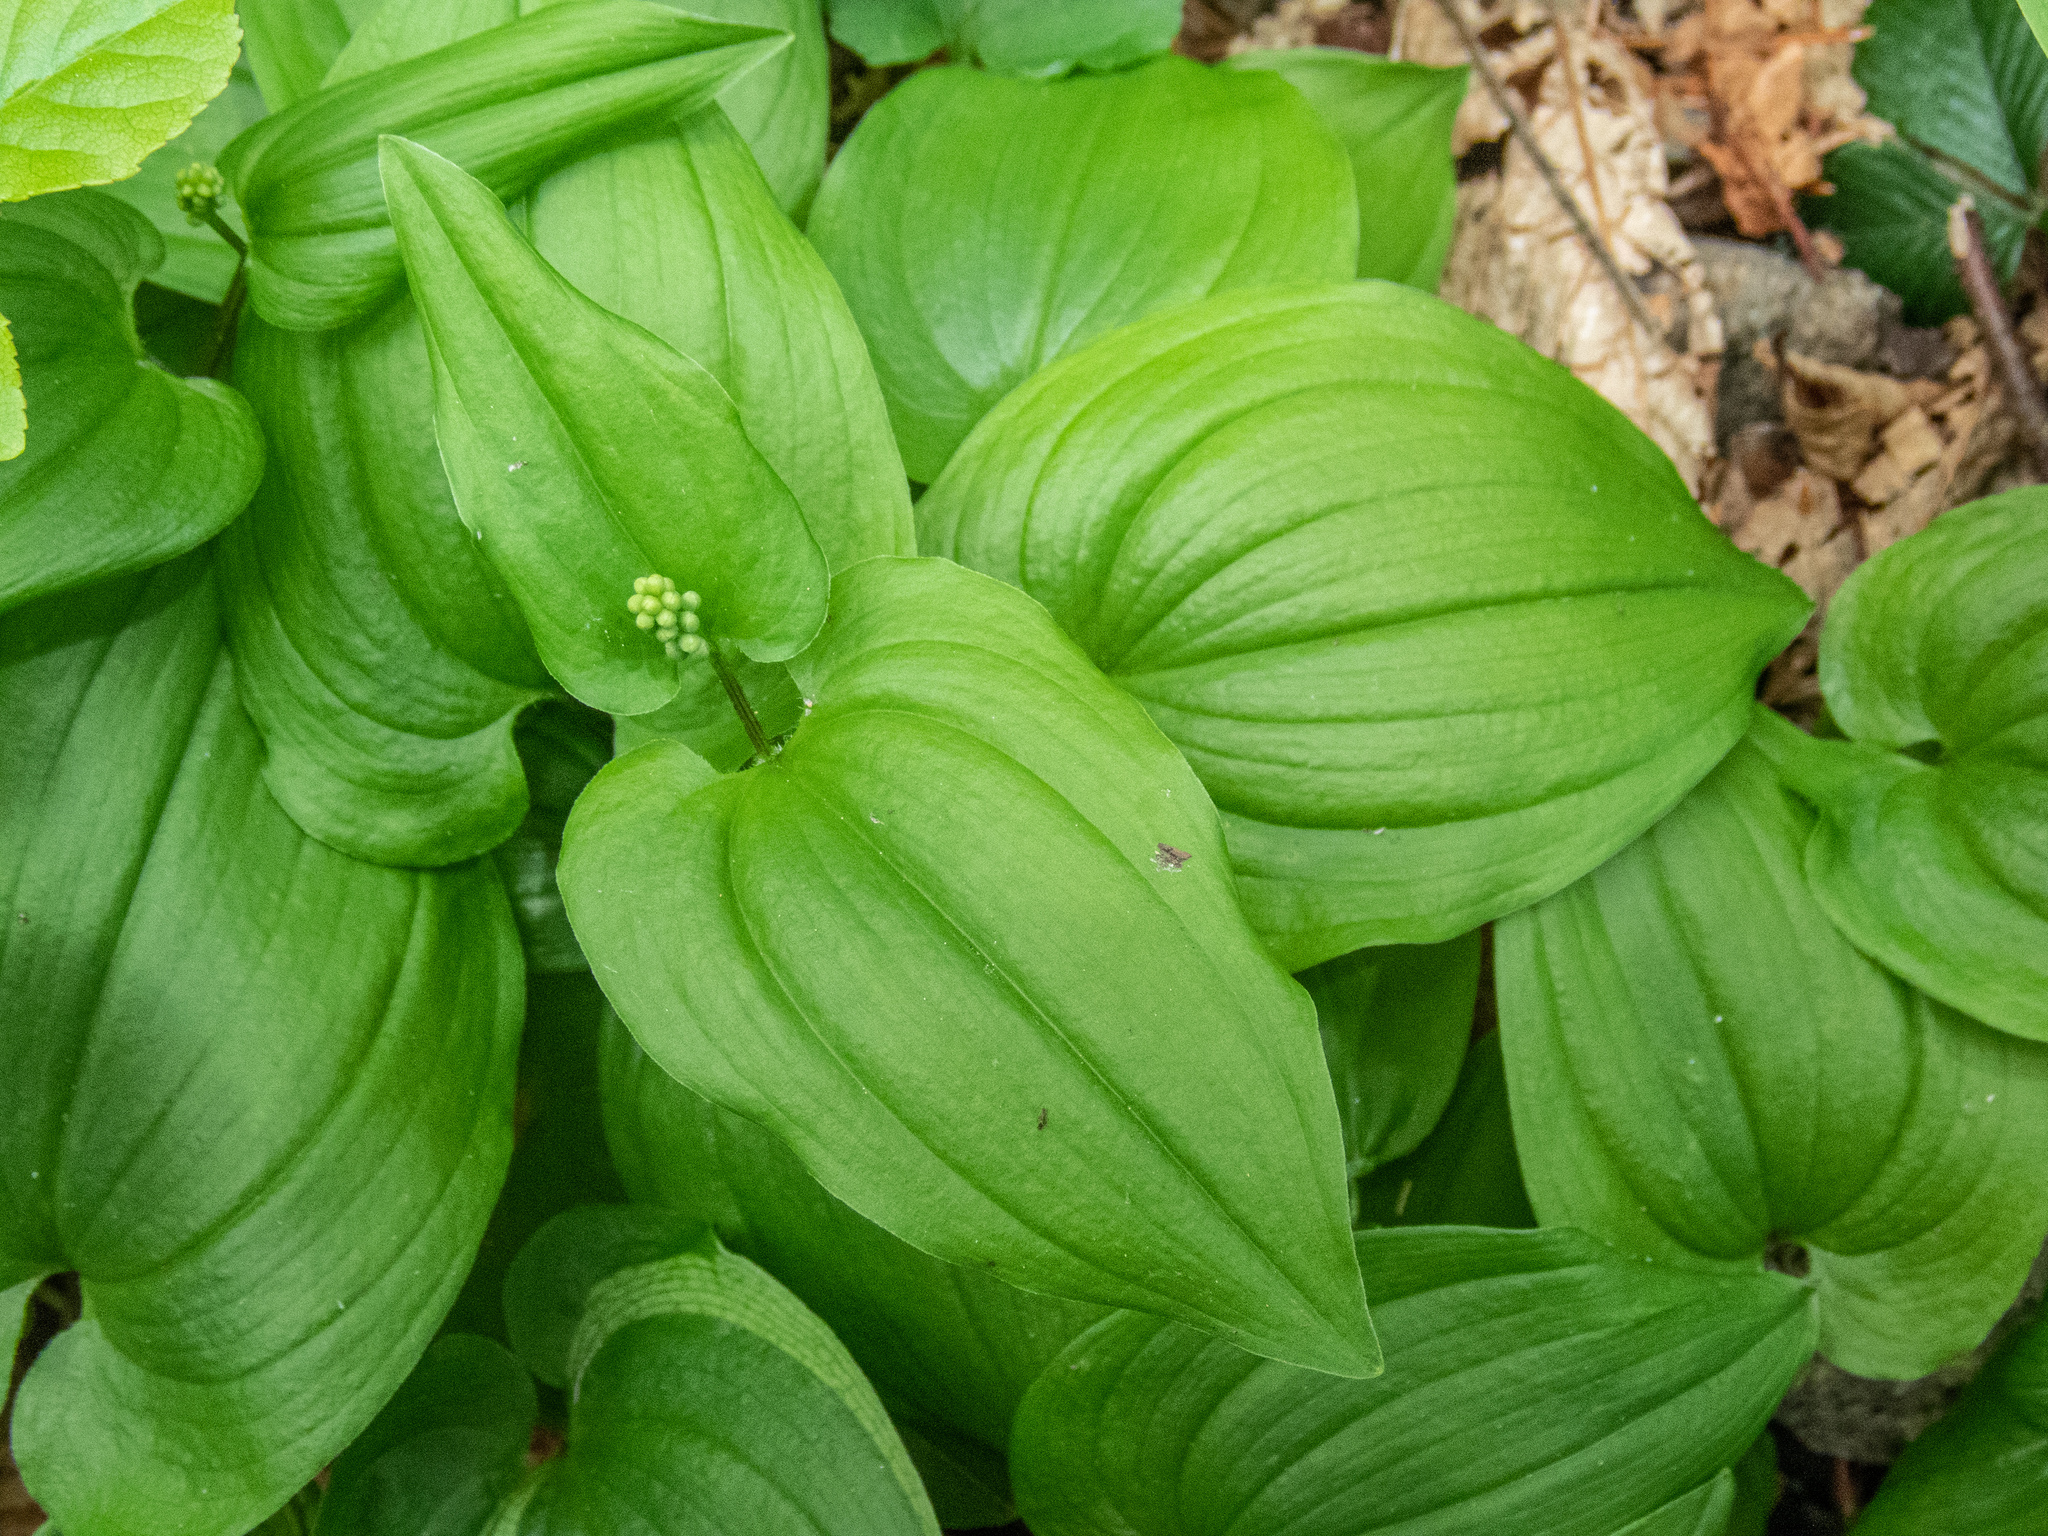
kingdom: Plantae
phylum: Tracheophyta
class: Liliopsida
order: Asparagales
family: Asparagaceae
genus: Maianthemum
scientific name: Maianthemum bifolium
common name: May lily
